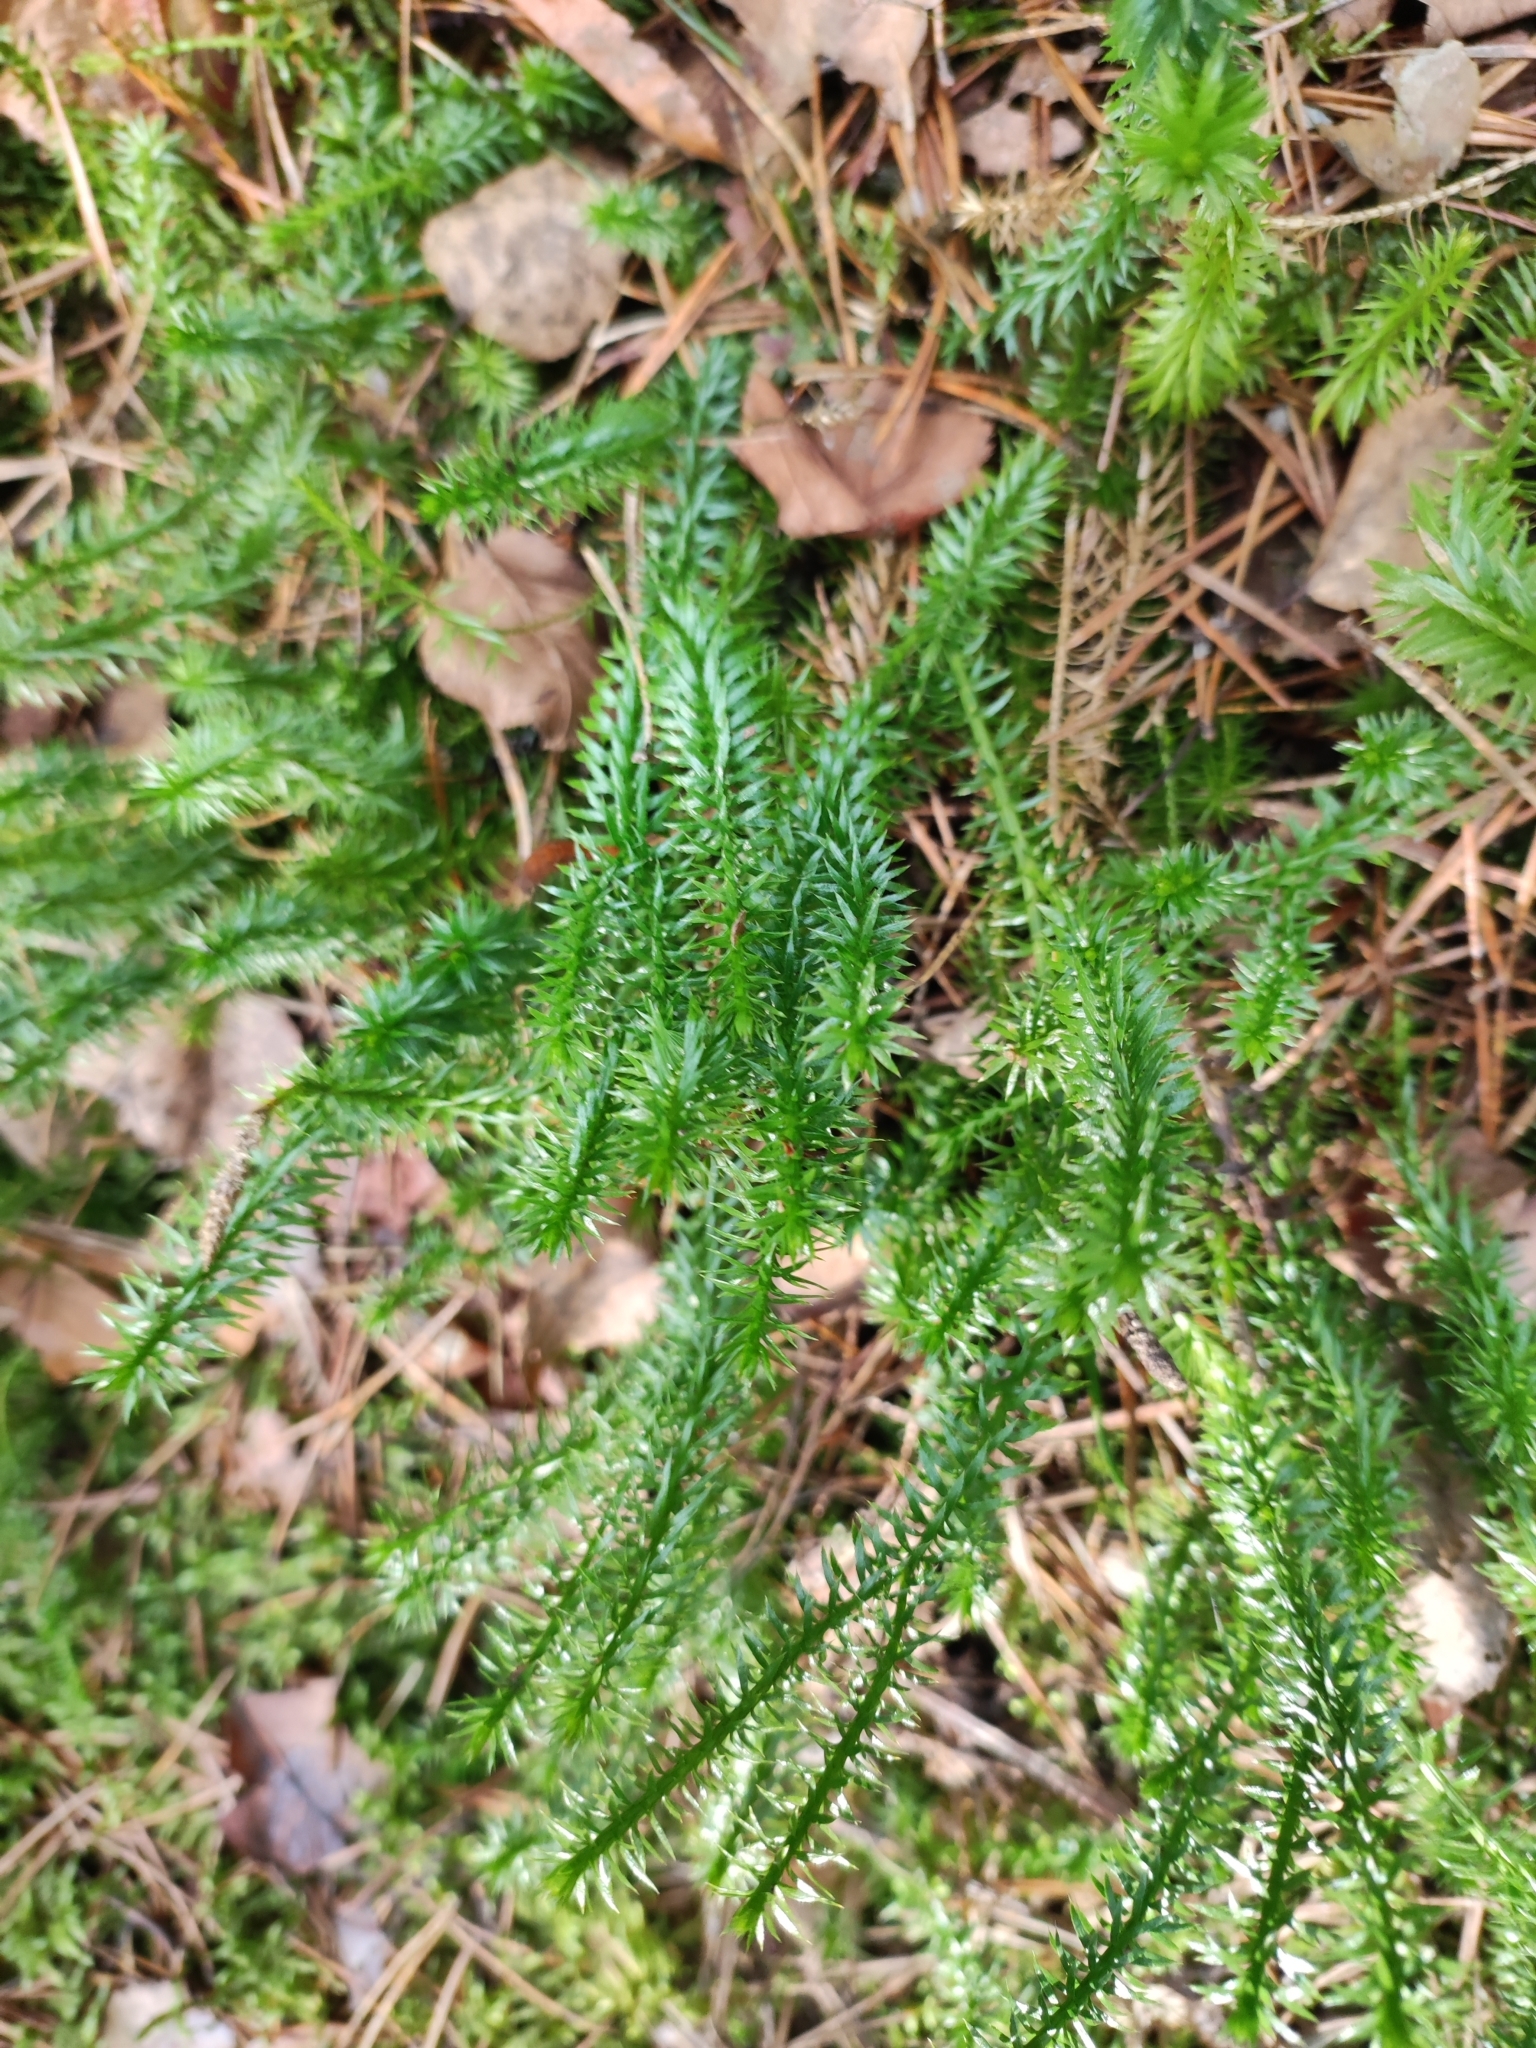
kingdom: Plantae
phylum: Tracheophyta
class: Lycopodiopsida
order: Lycopodiales
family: Lycopodiaceae
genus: Spinulum
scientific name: Spinulum annotinum
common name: Interrupted club-moss
